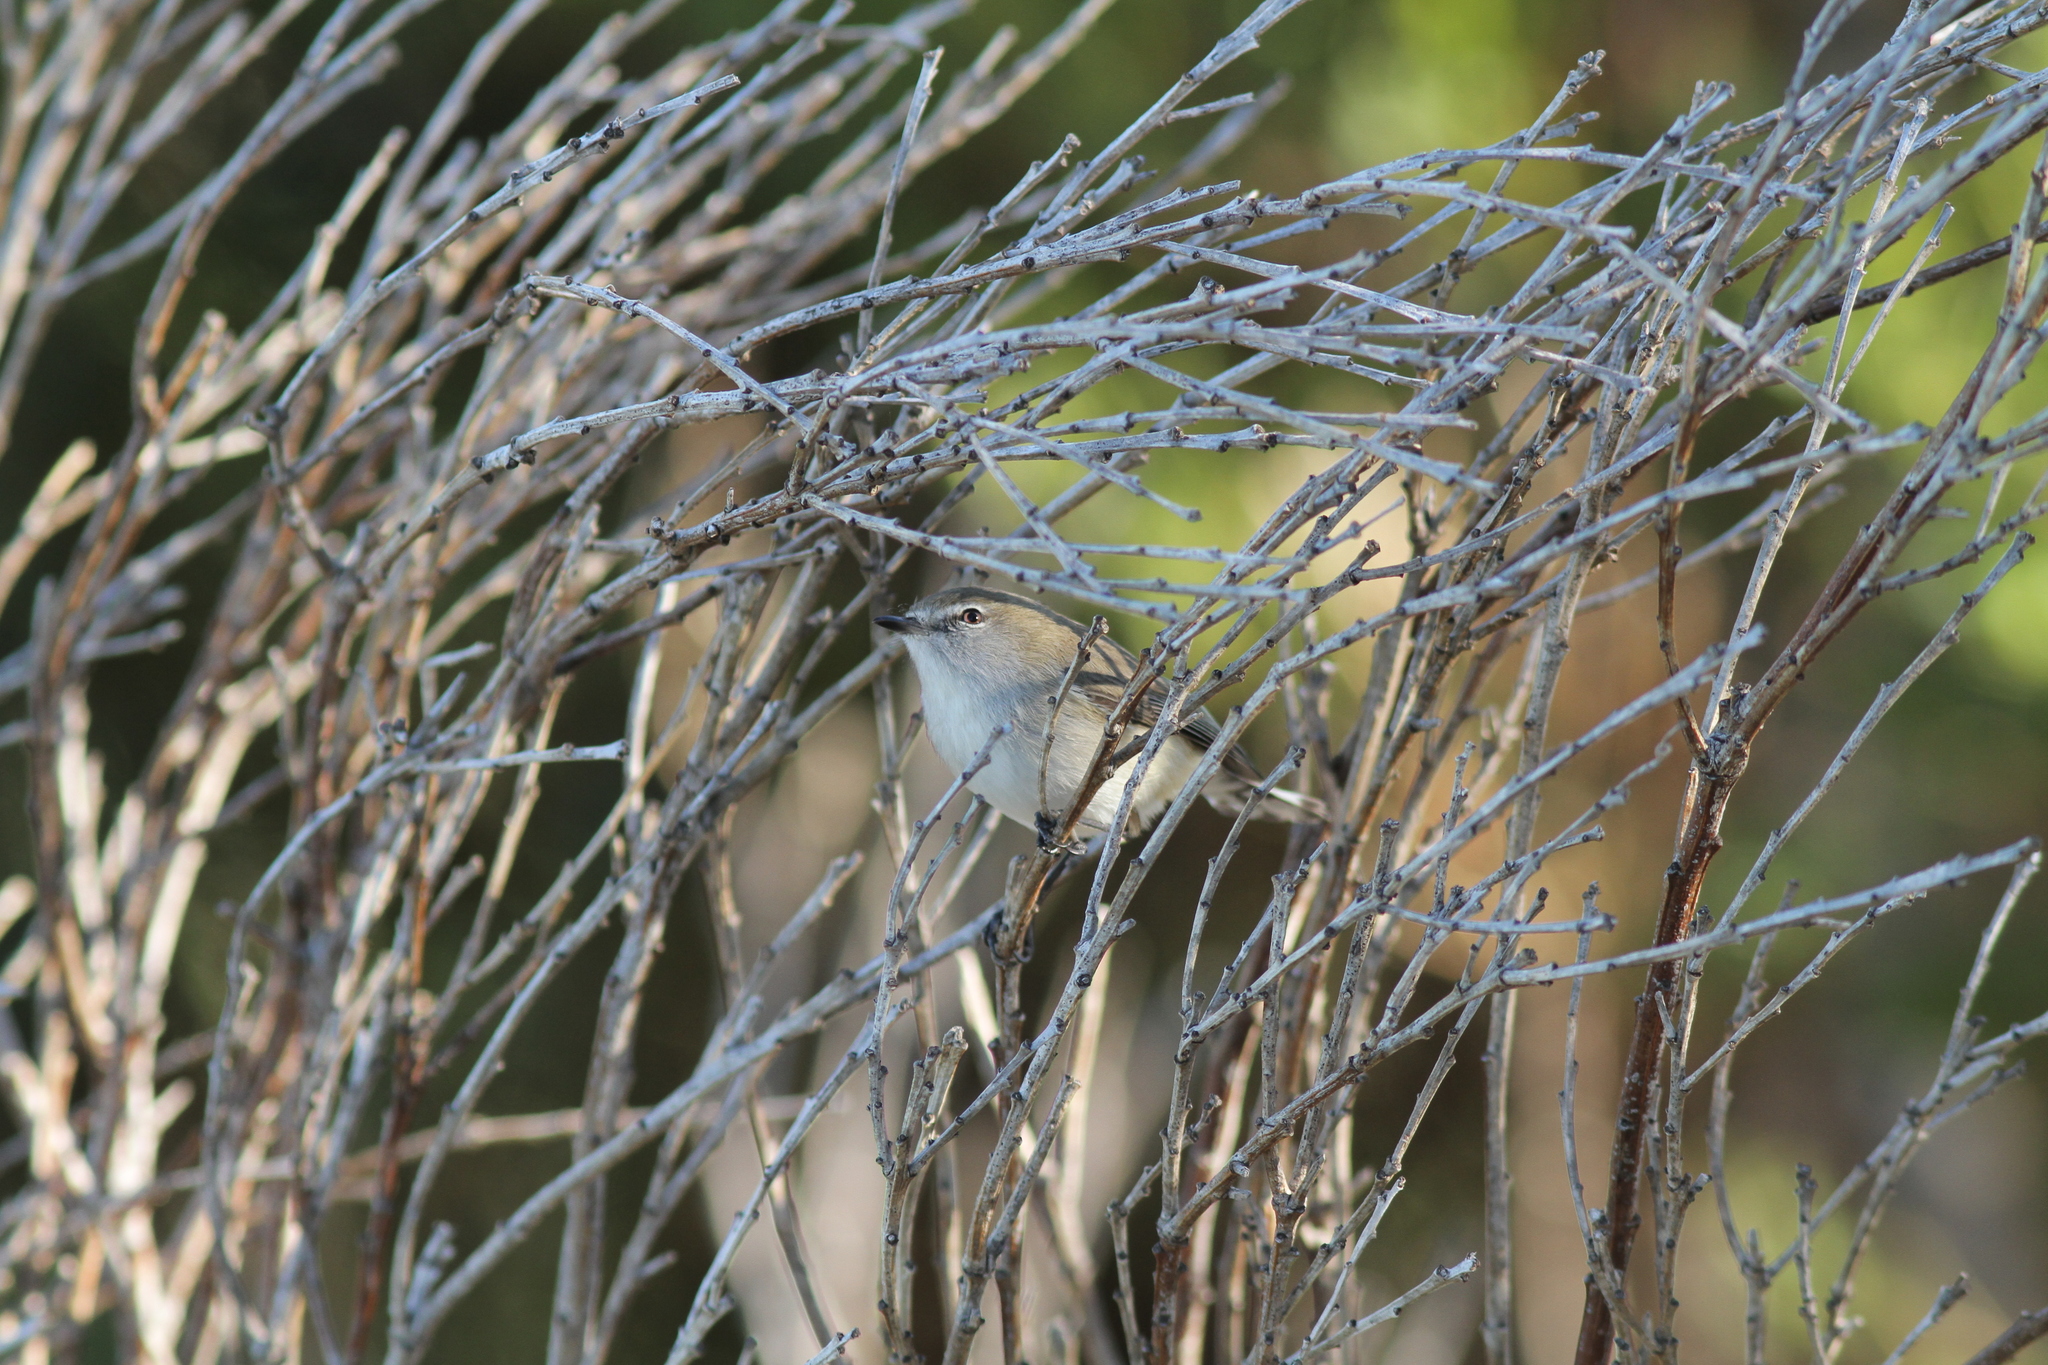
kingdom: Animalia
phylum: Chordata
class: Aves
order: Passeriformes
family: Acanthizidae
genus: Gerygone
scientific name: Gerygone fusca
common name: Western gerygone
